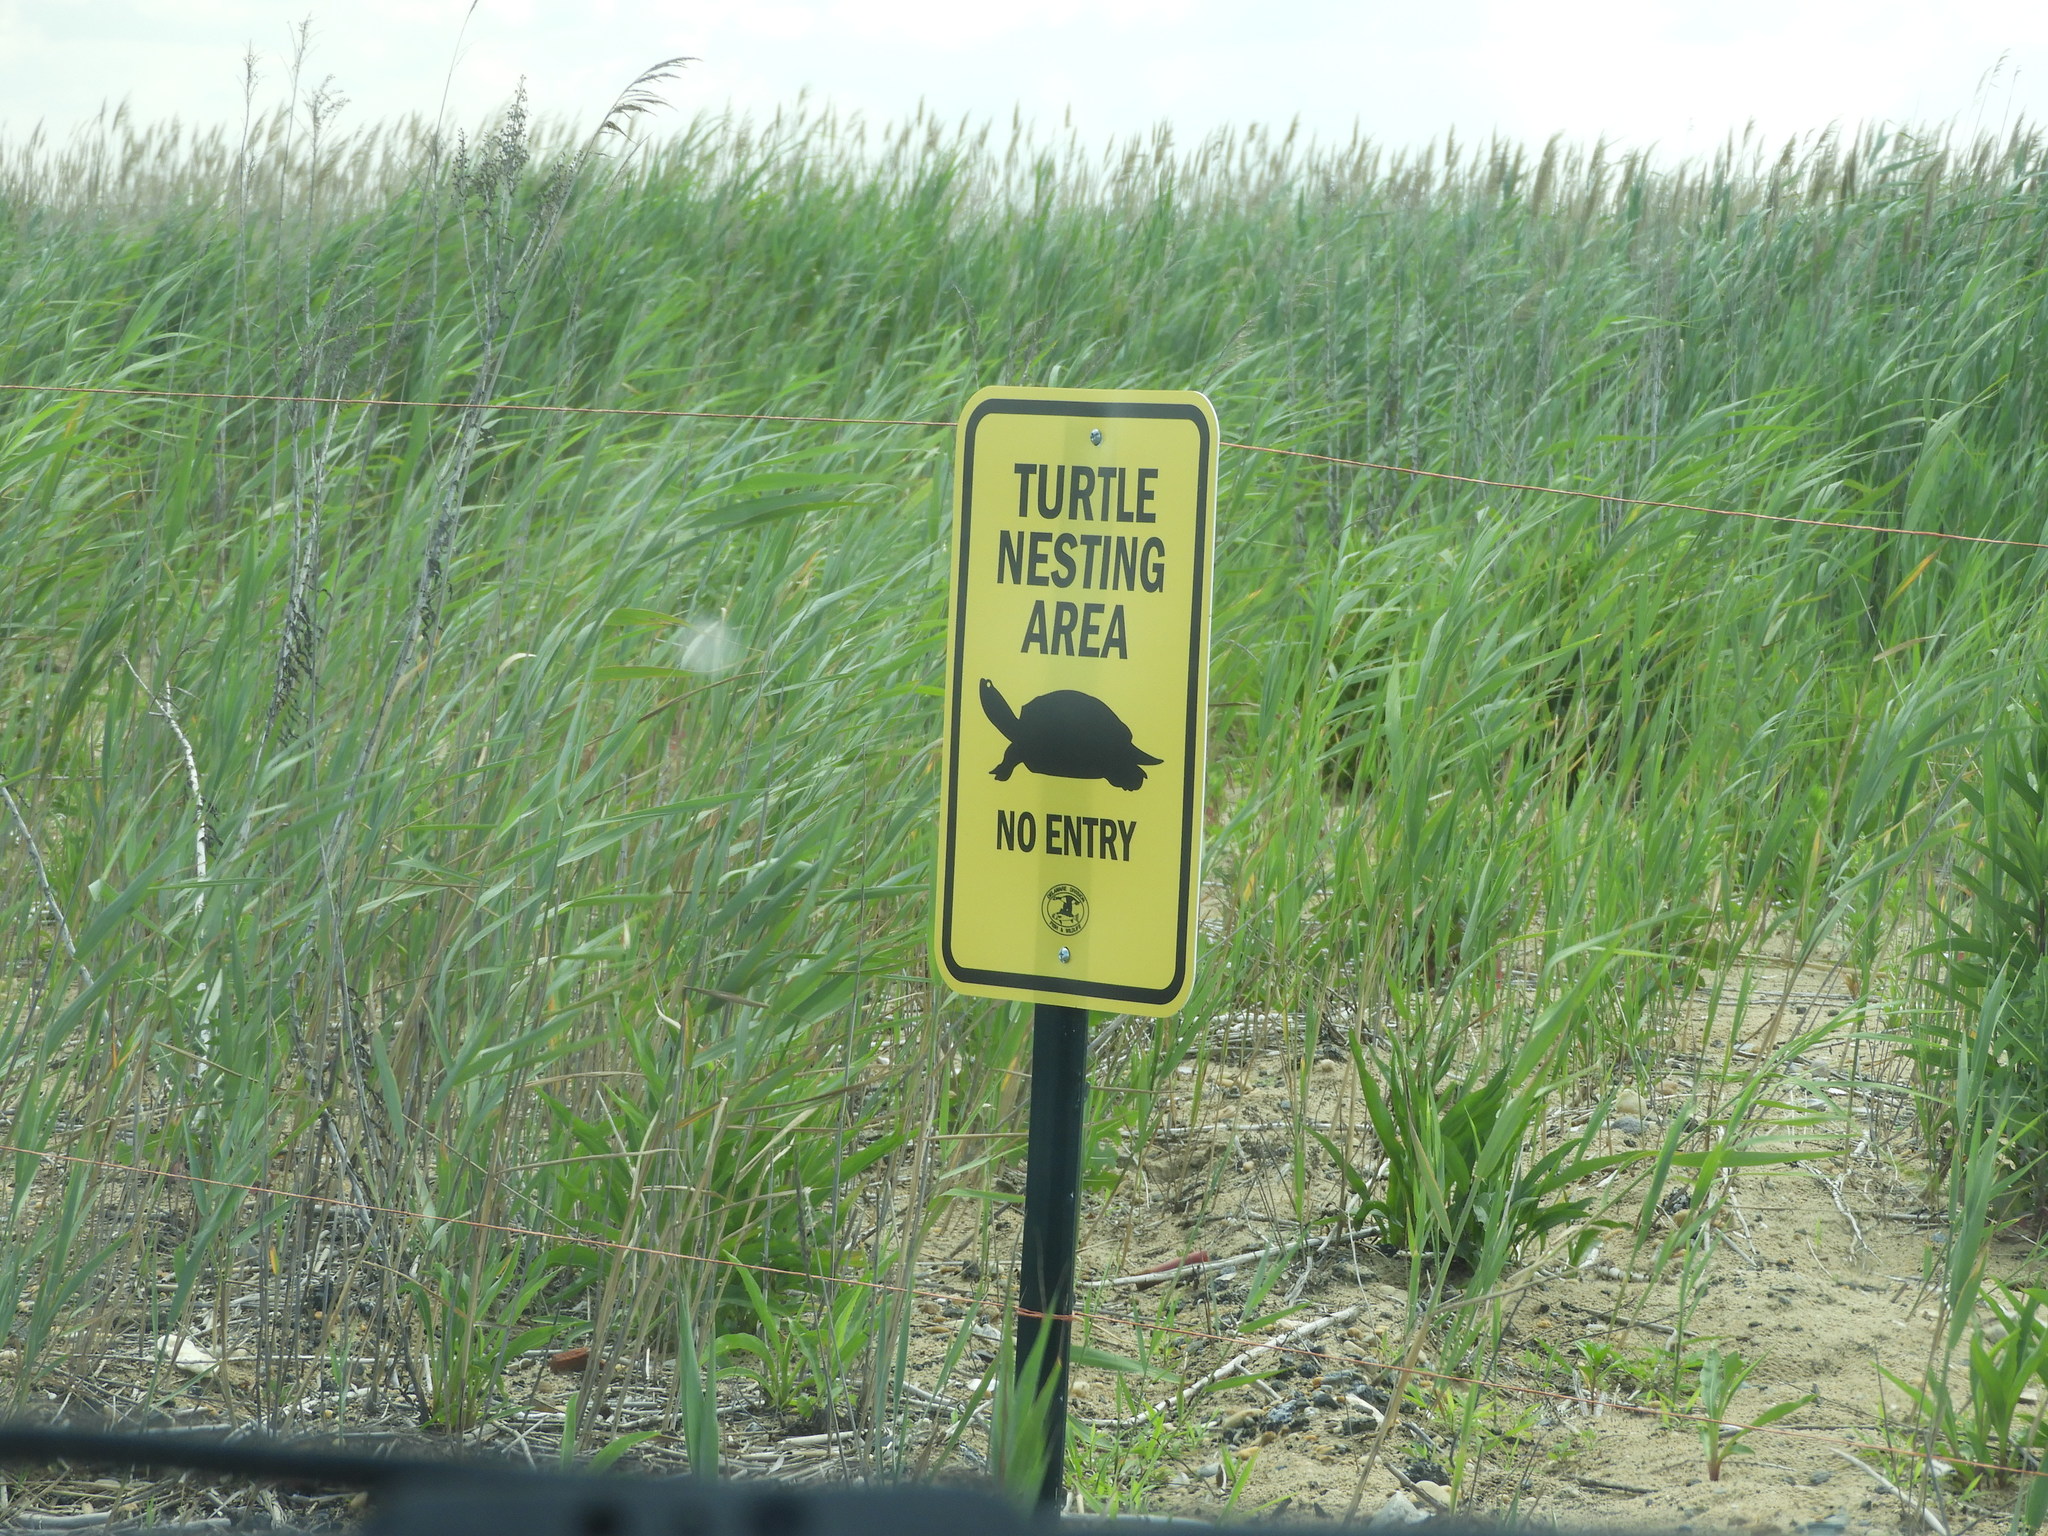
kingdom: Animalia
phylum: Chordata
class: Testudines
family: Emydidae
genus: Malaclemys
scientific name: Malaclemys terrapin
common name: Diamondback terrapin
